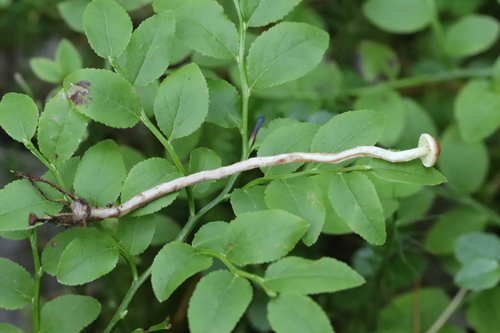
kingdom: Fungi
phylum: Basidiomycota
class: Agaricomycetes
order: Agaricales
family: Strophariaceae
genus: Hypholoma
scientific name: Hypholoma polytrichi
